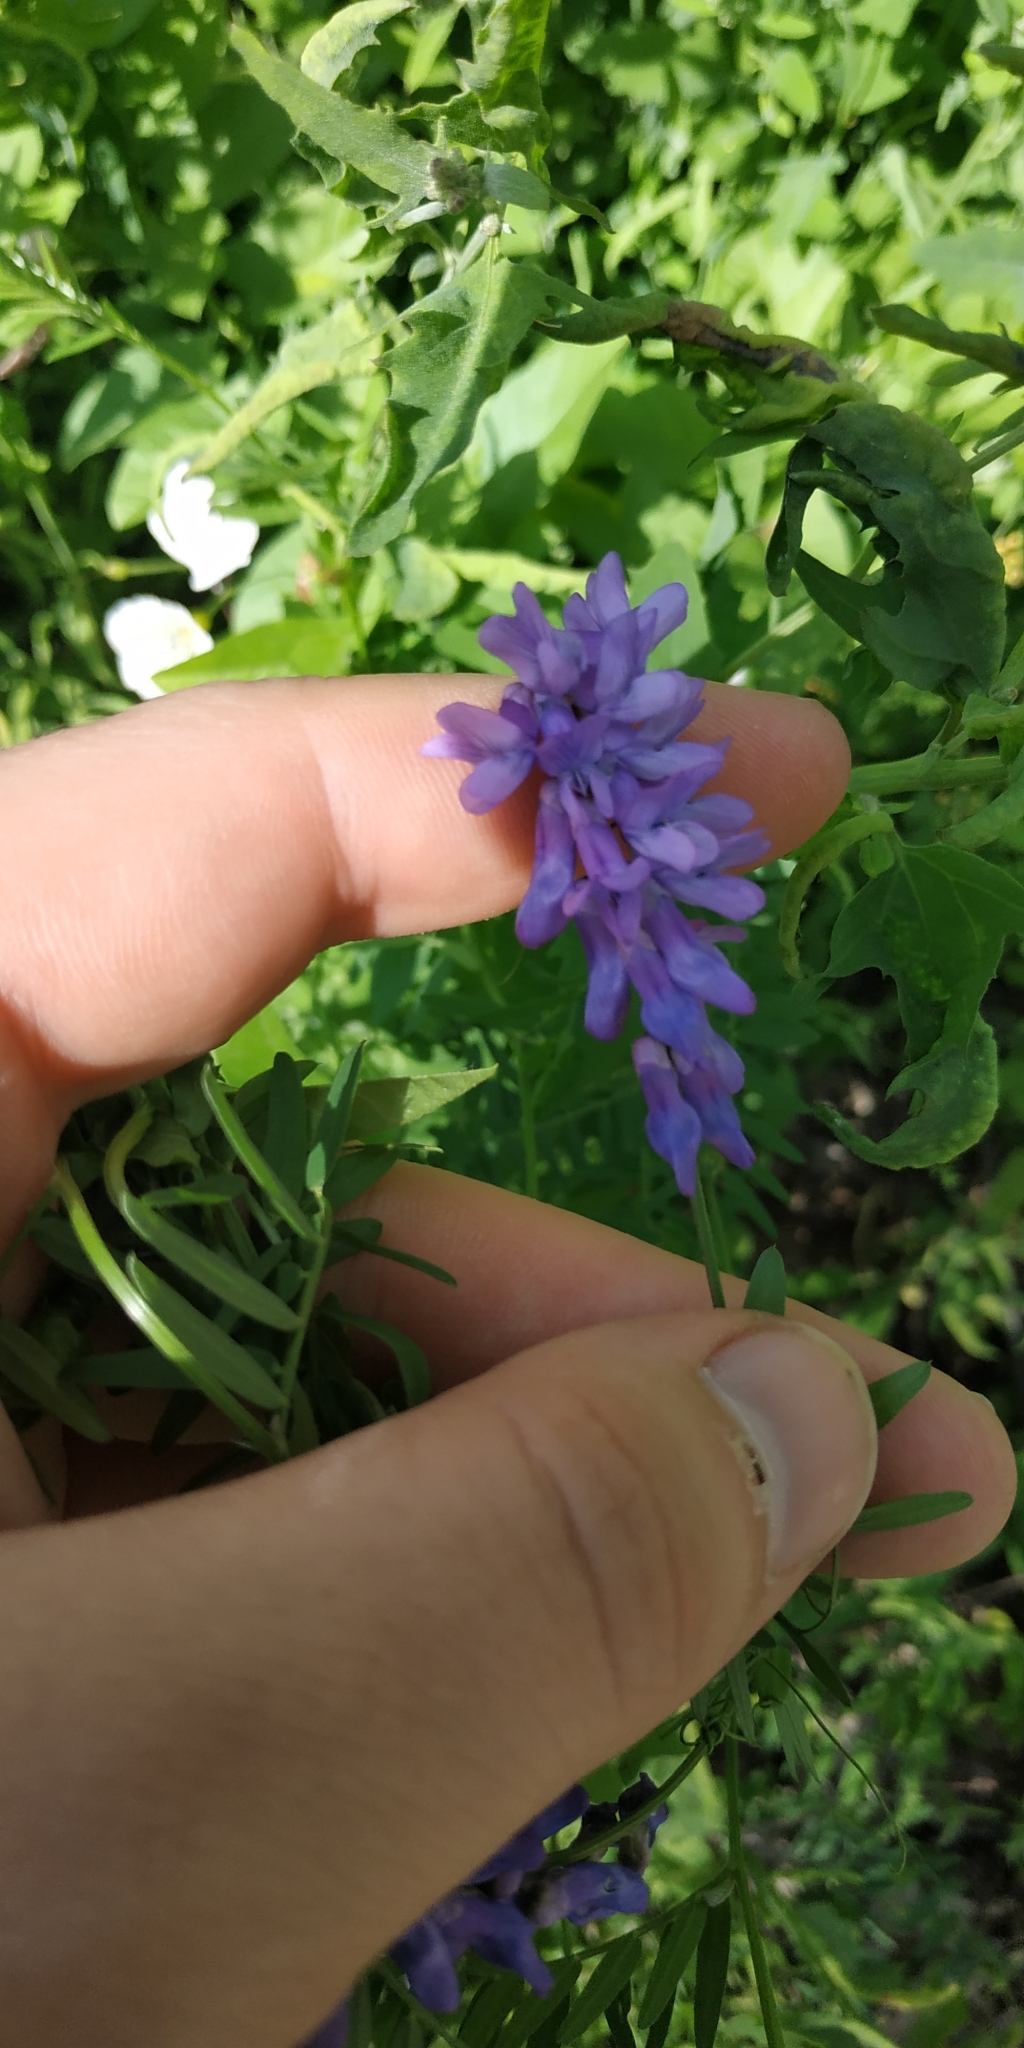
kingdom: Plantae
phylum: Tracheophyta
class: Magnoliopsida
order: Fabales
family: Fabaceae
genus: Vicia
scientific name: Vicia cracca
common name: Bird vetch
